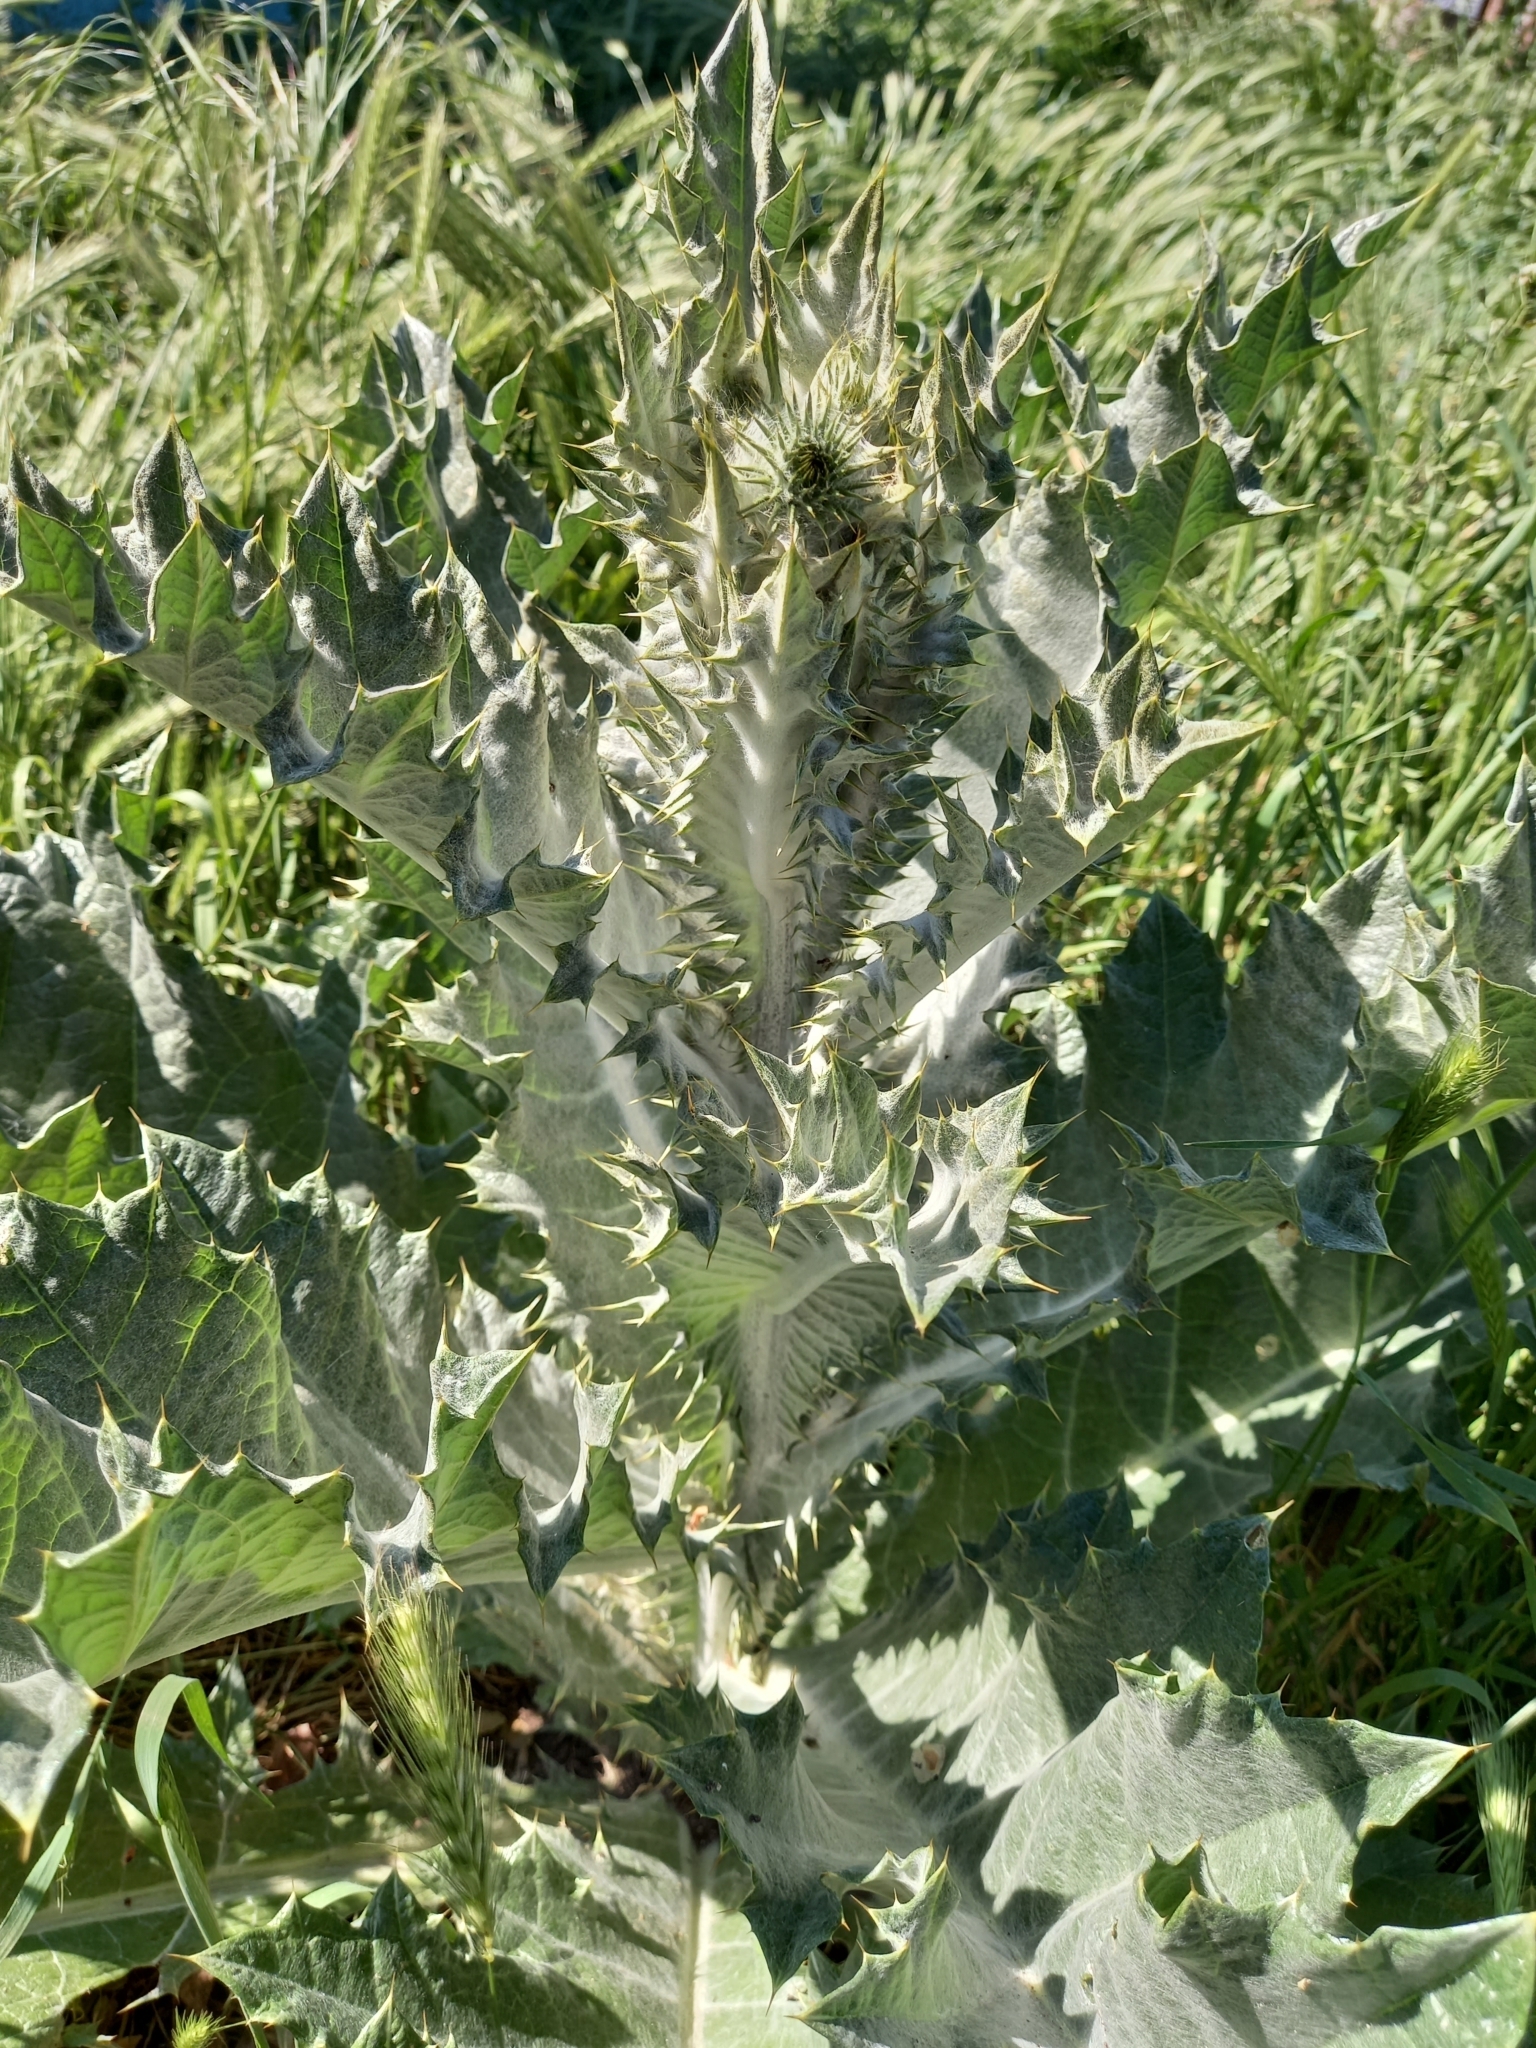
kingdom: Plantae
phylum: Tracheophyta
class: Magnoliopsida
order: Asterales
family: Asteraceae
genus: Onopordum
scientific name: Onopordum acanthium
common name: Scotch thistle
